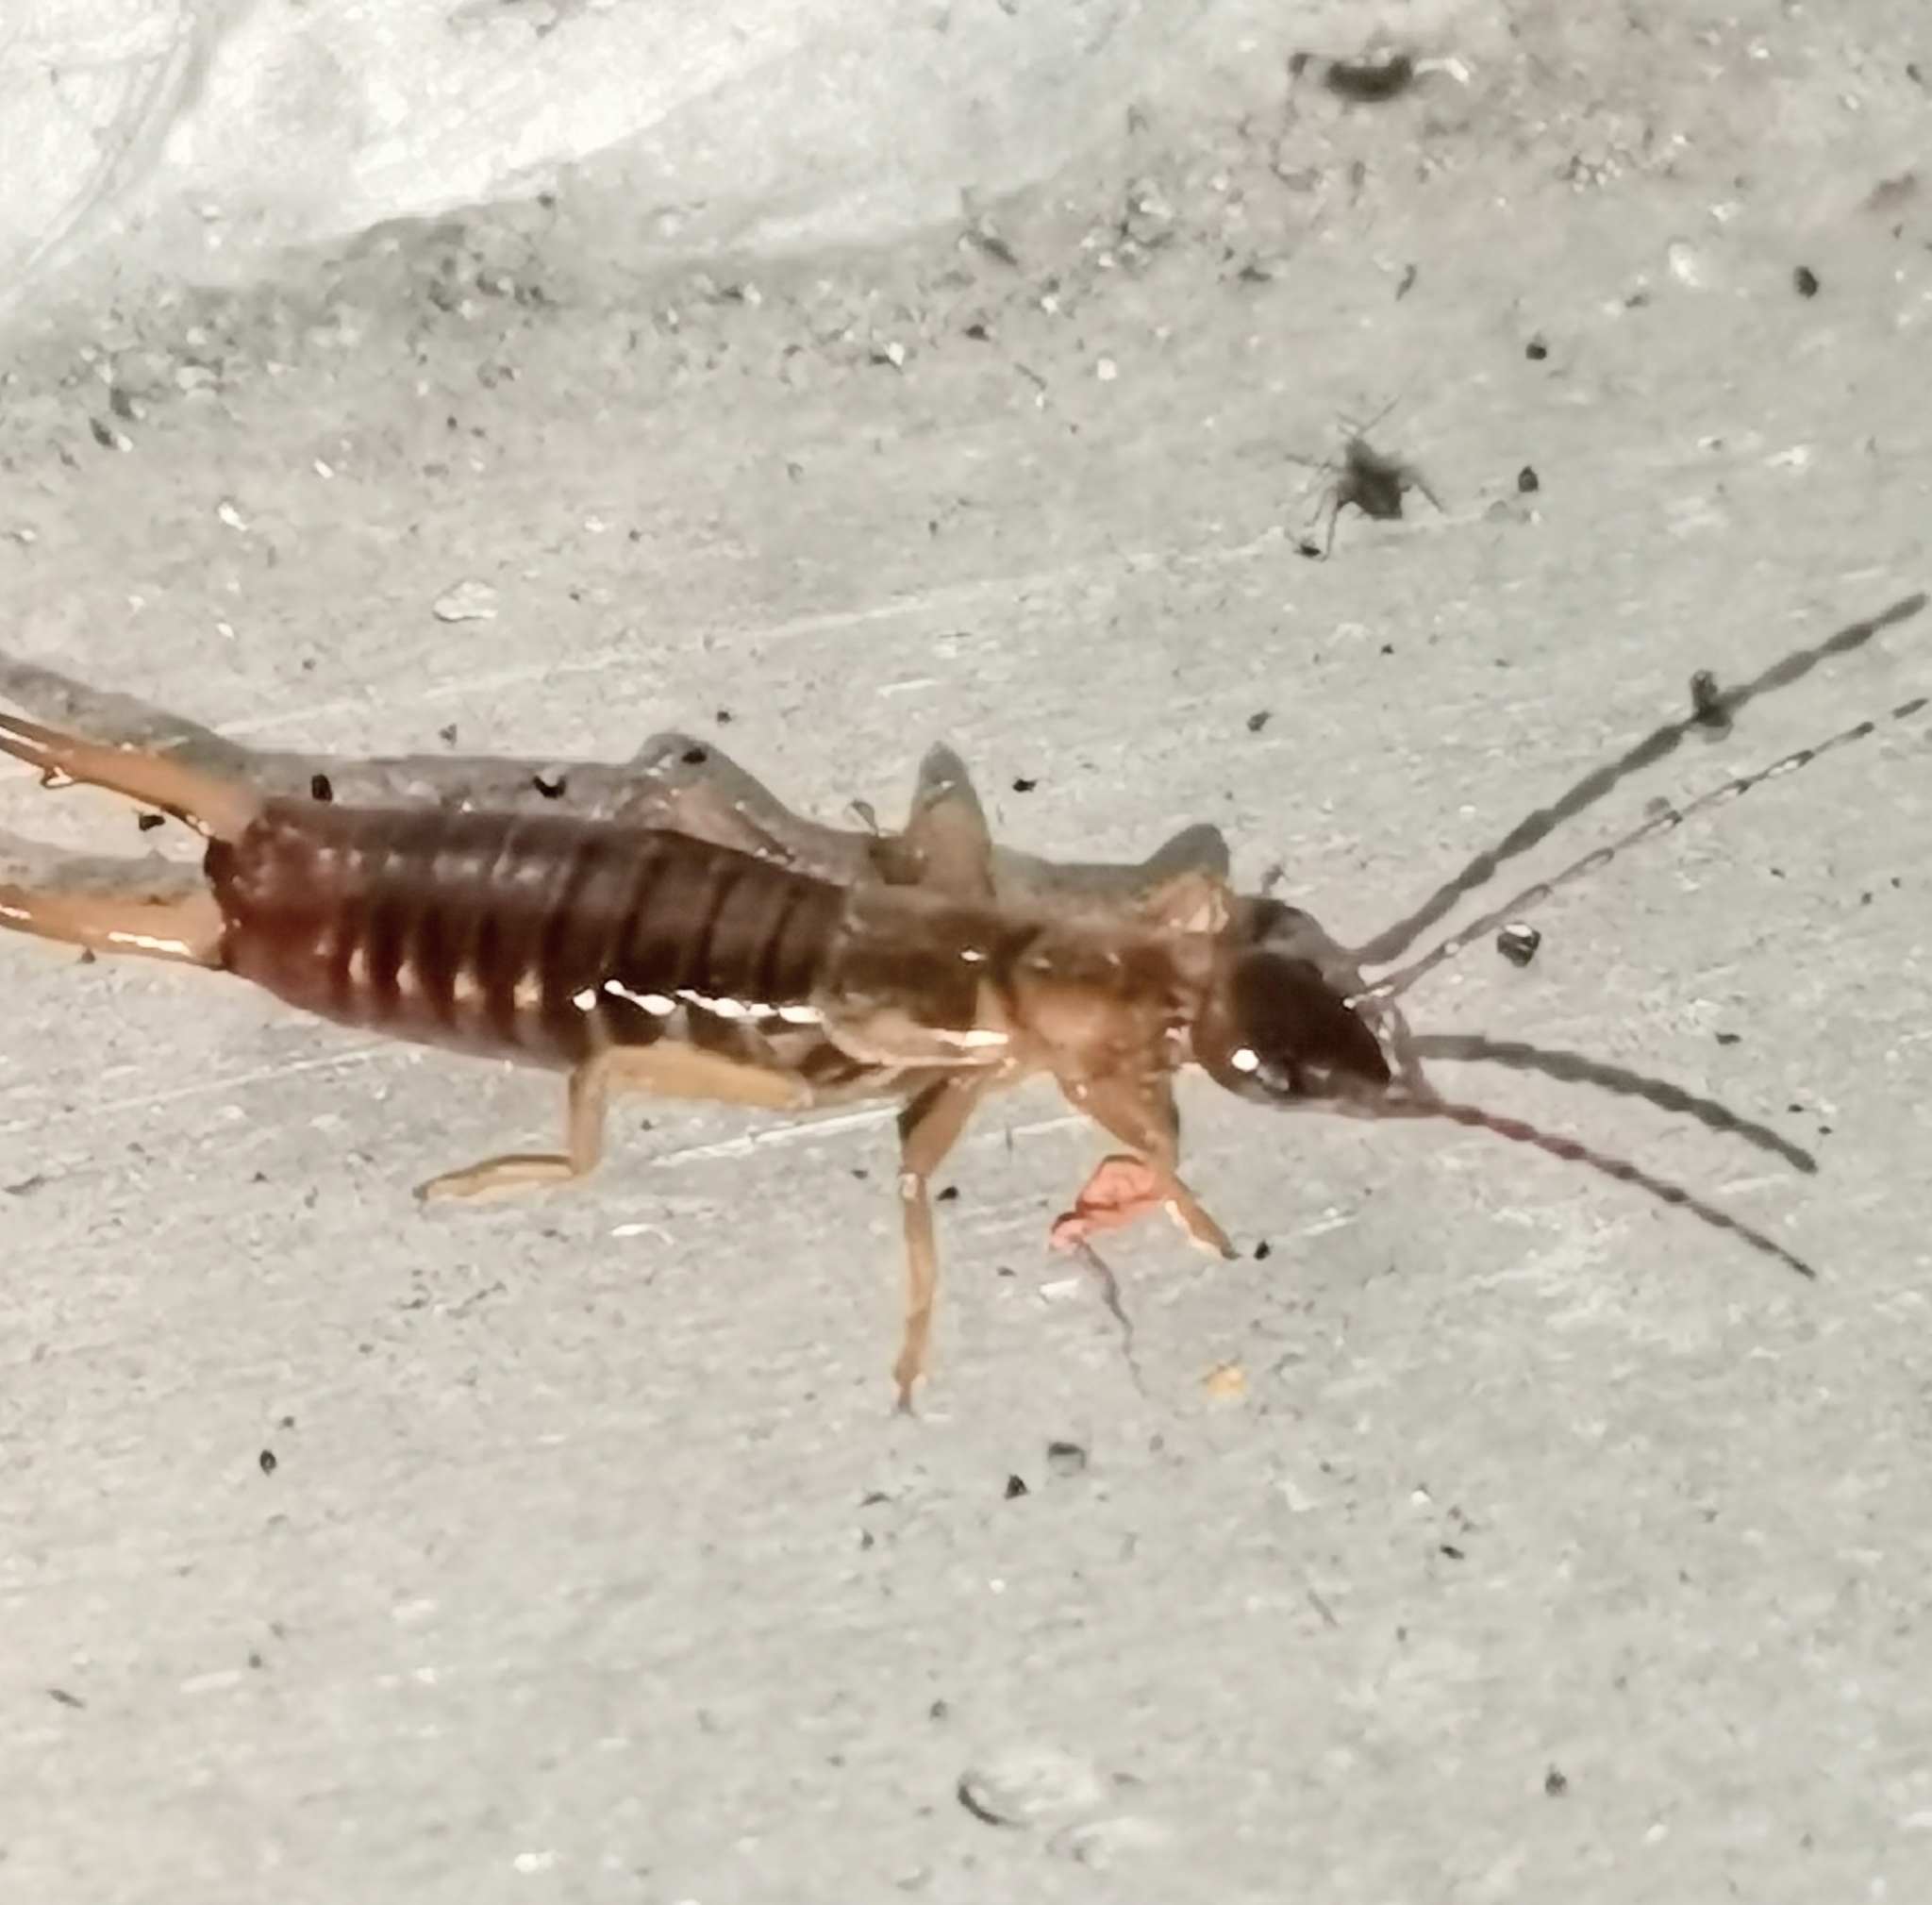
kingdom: Animalia
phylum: Arthropoda
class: Insecta
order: Dermaptera
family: Forficulidae
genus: Apterygida
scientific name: Apterygida albipennis
